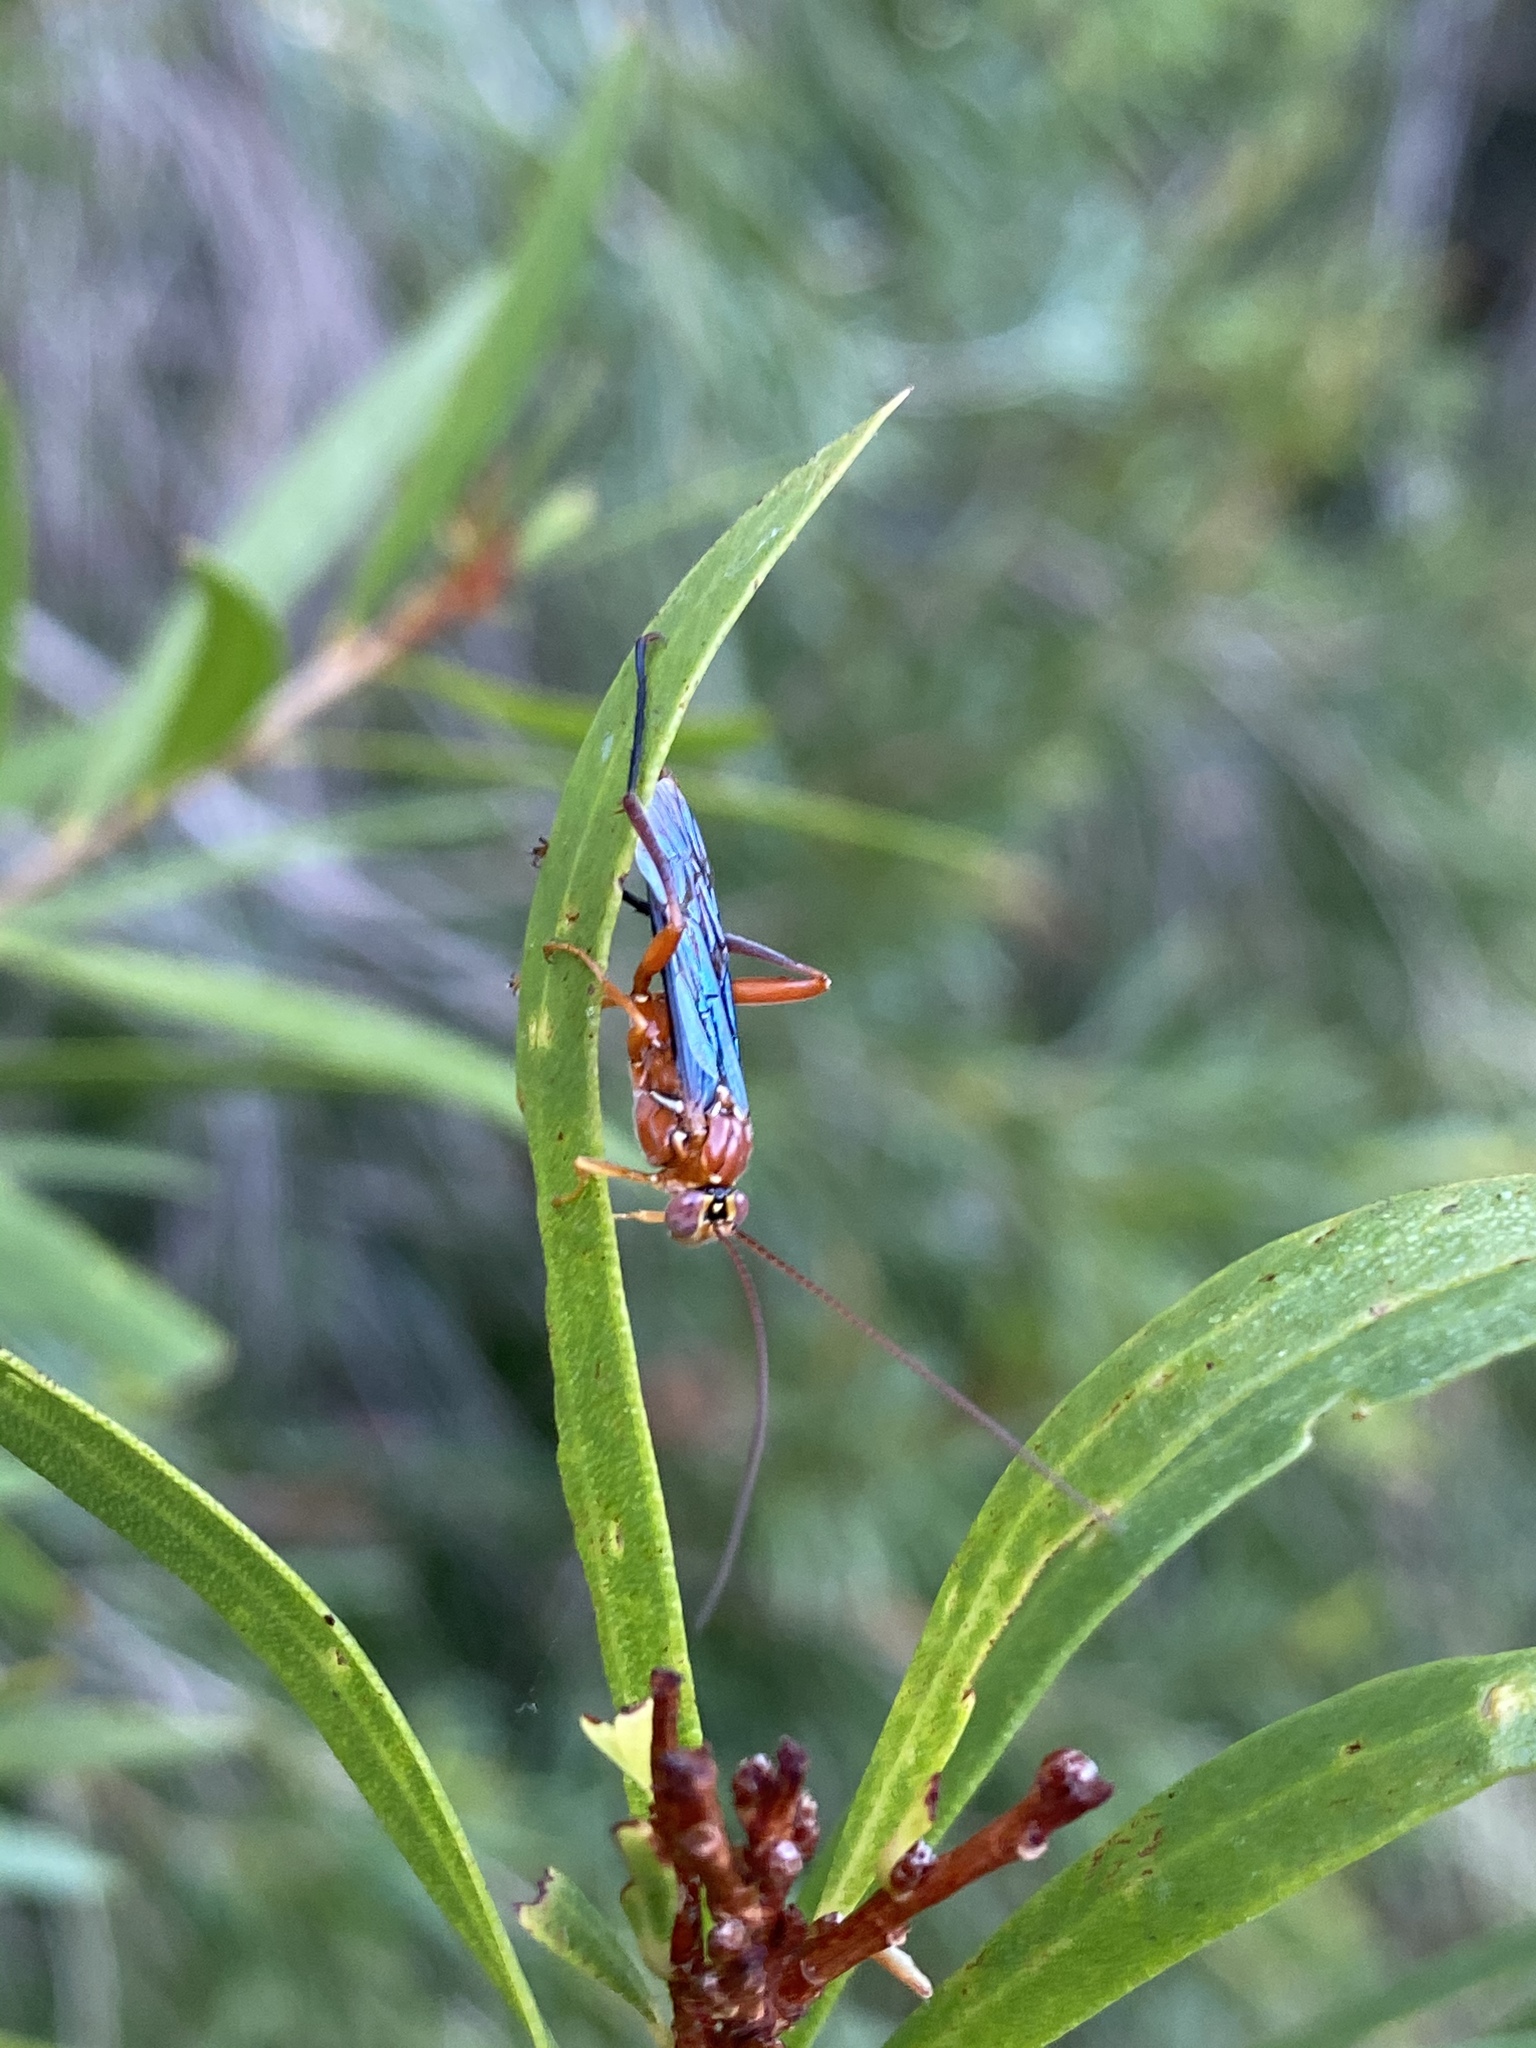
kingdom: Animalia
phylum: Arthropoda
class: Insecta
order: Hymenoptera
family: Ichneumonidae
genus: Lissopimpla
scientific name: Lissopimpla excelsa
